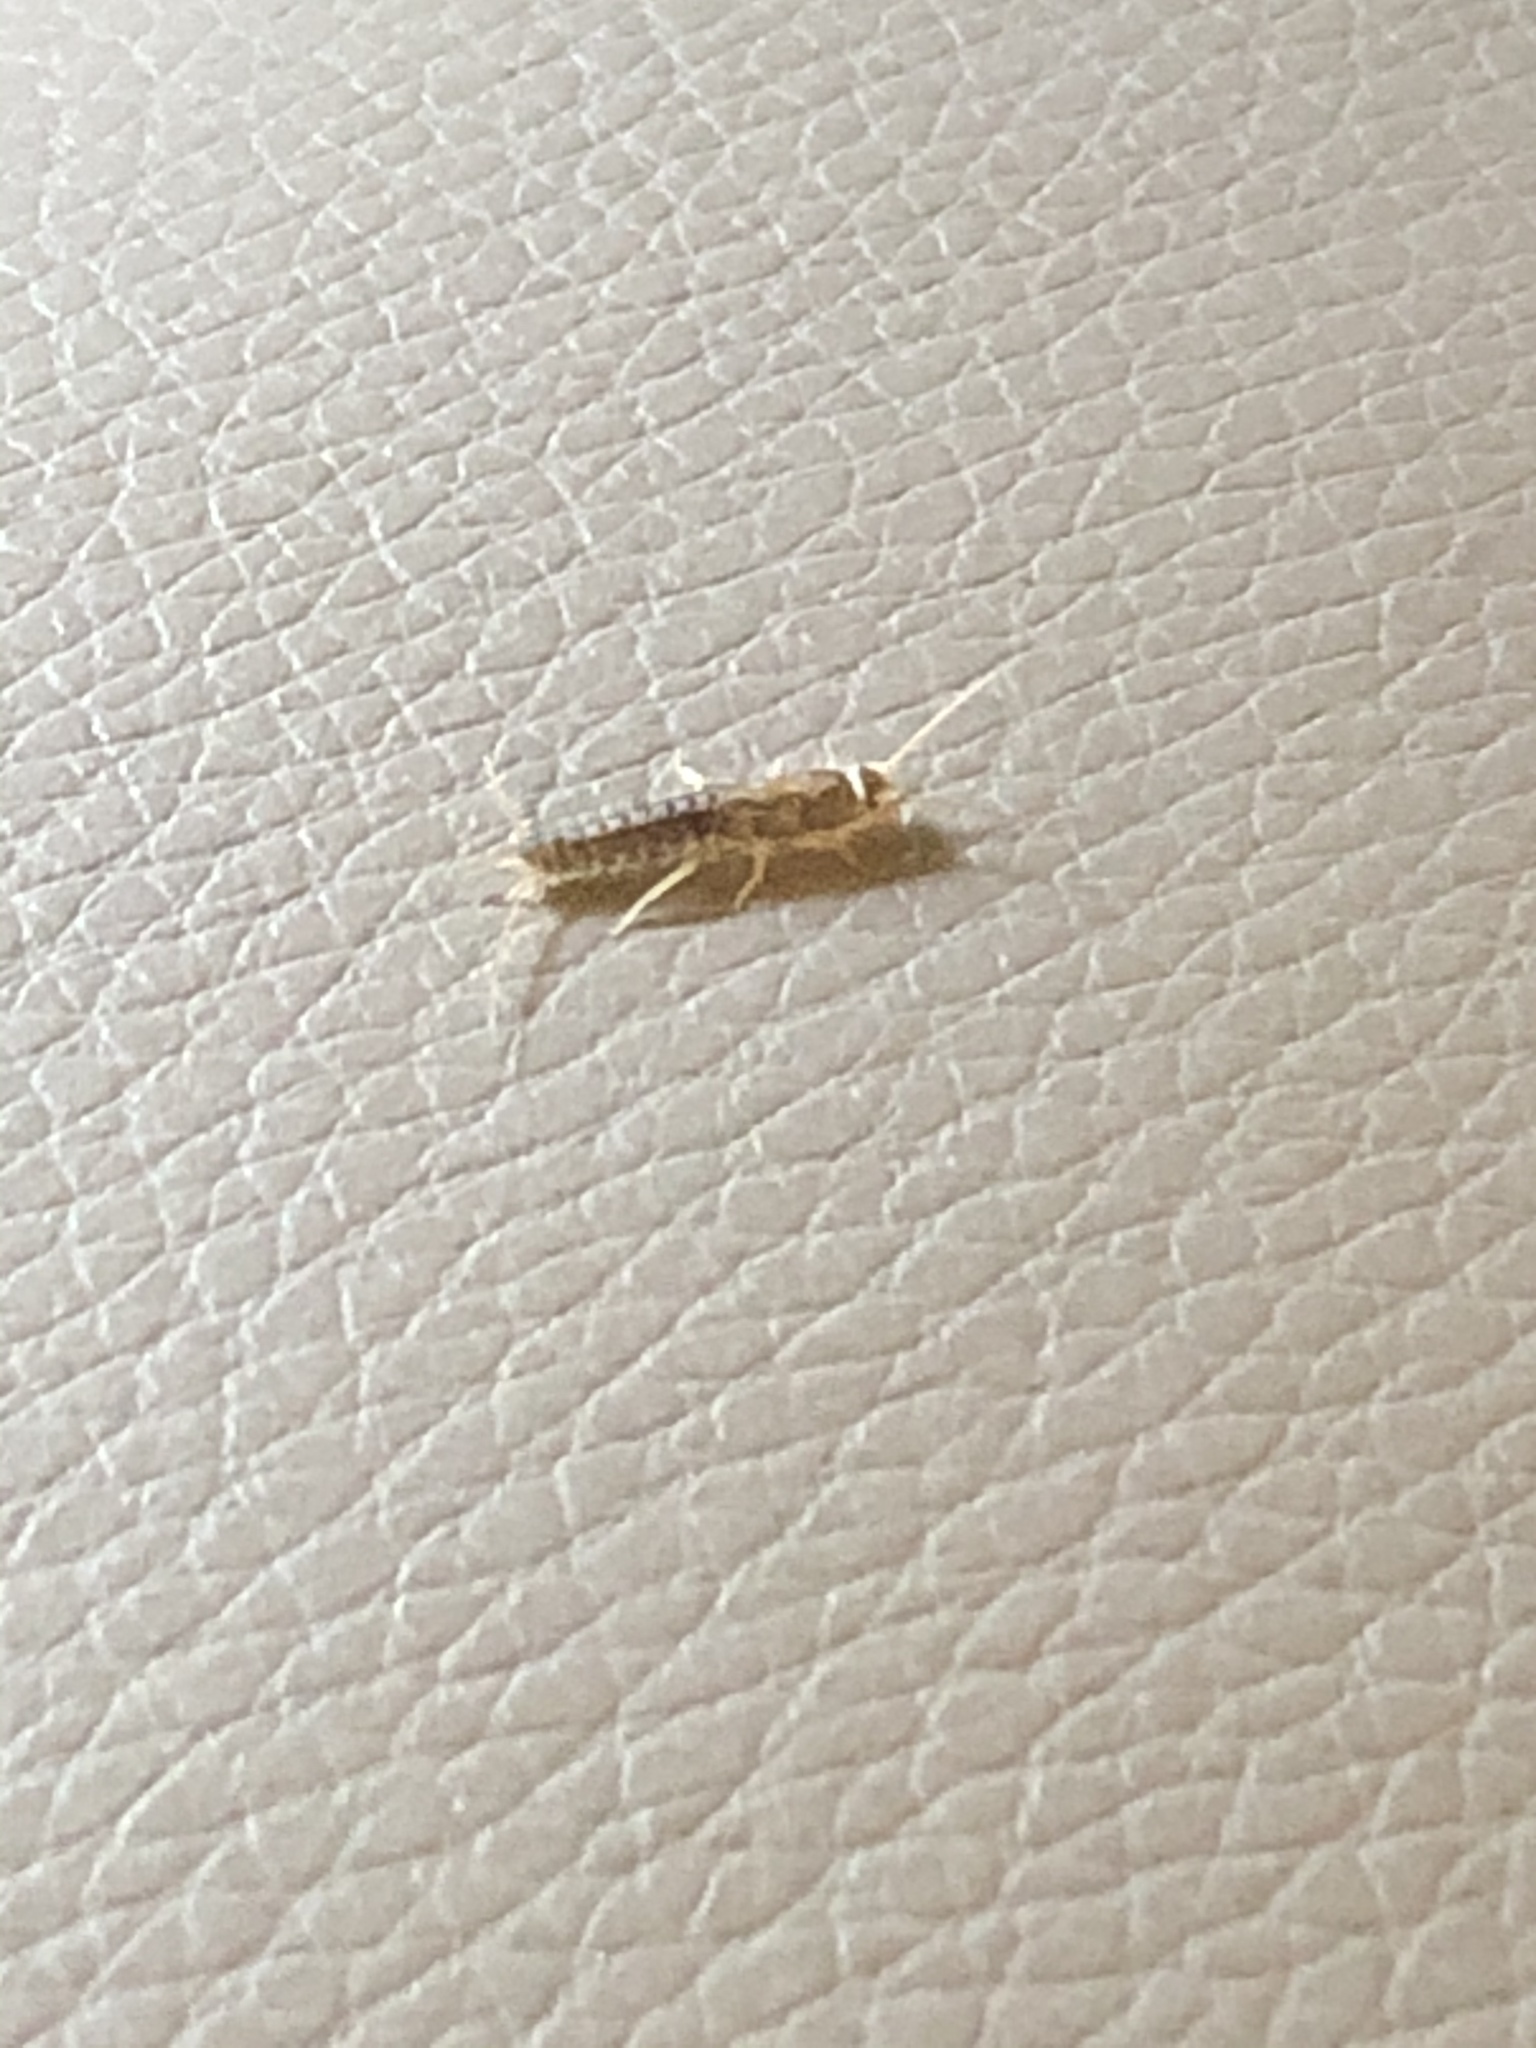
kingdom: Animalia
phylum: Arthropoda
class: Insecta
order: Zygentoma
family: Lepismatidae
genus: Ctenolepisma
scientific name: Ctenolepisma longicaudatum
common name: Silverfish
